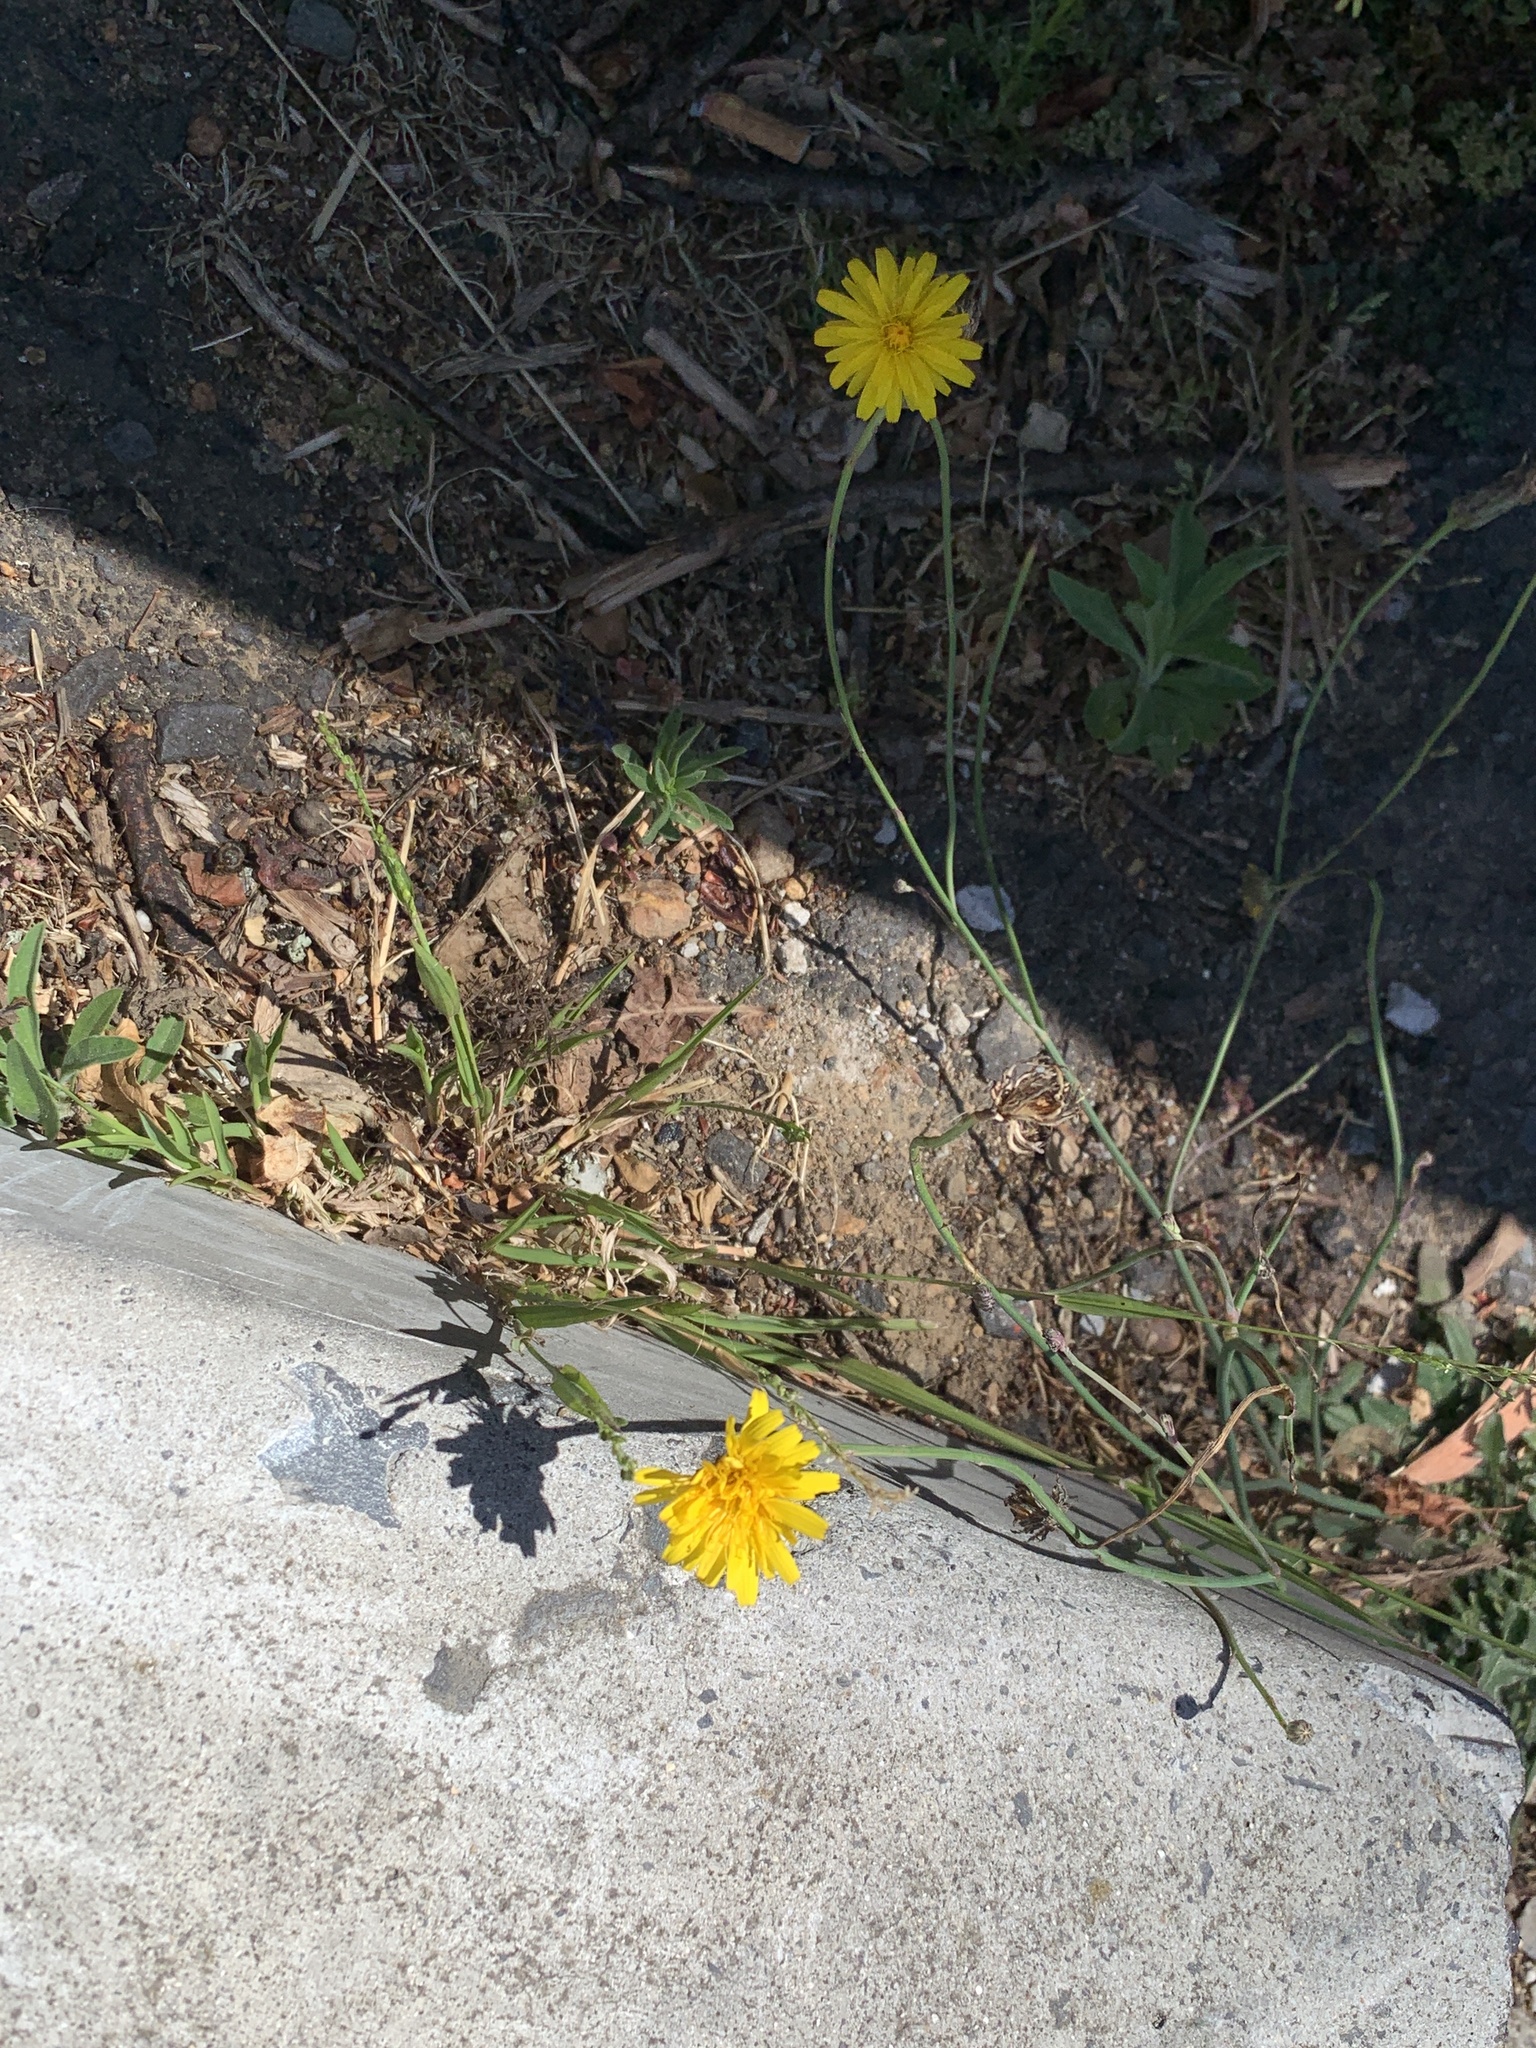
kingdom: Plantae
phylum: Tracheophyta
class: Magnoliopsida
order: Asterales
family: Asteraceae
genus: Hypochaeris
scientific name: Hypochaeris radicata
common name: Flatweed
